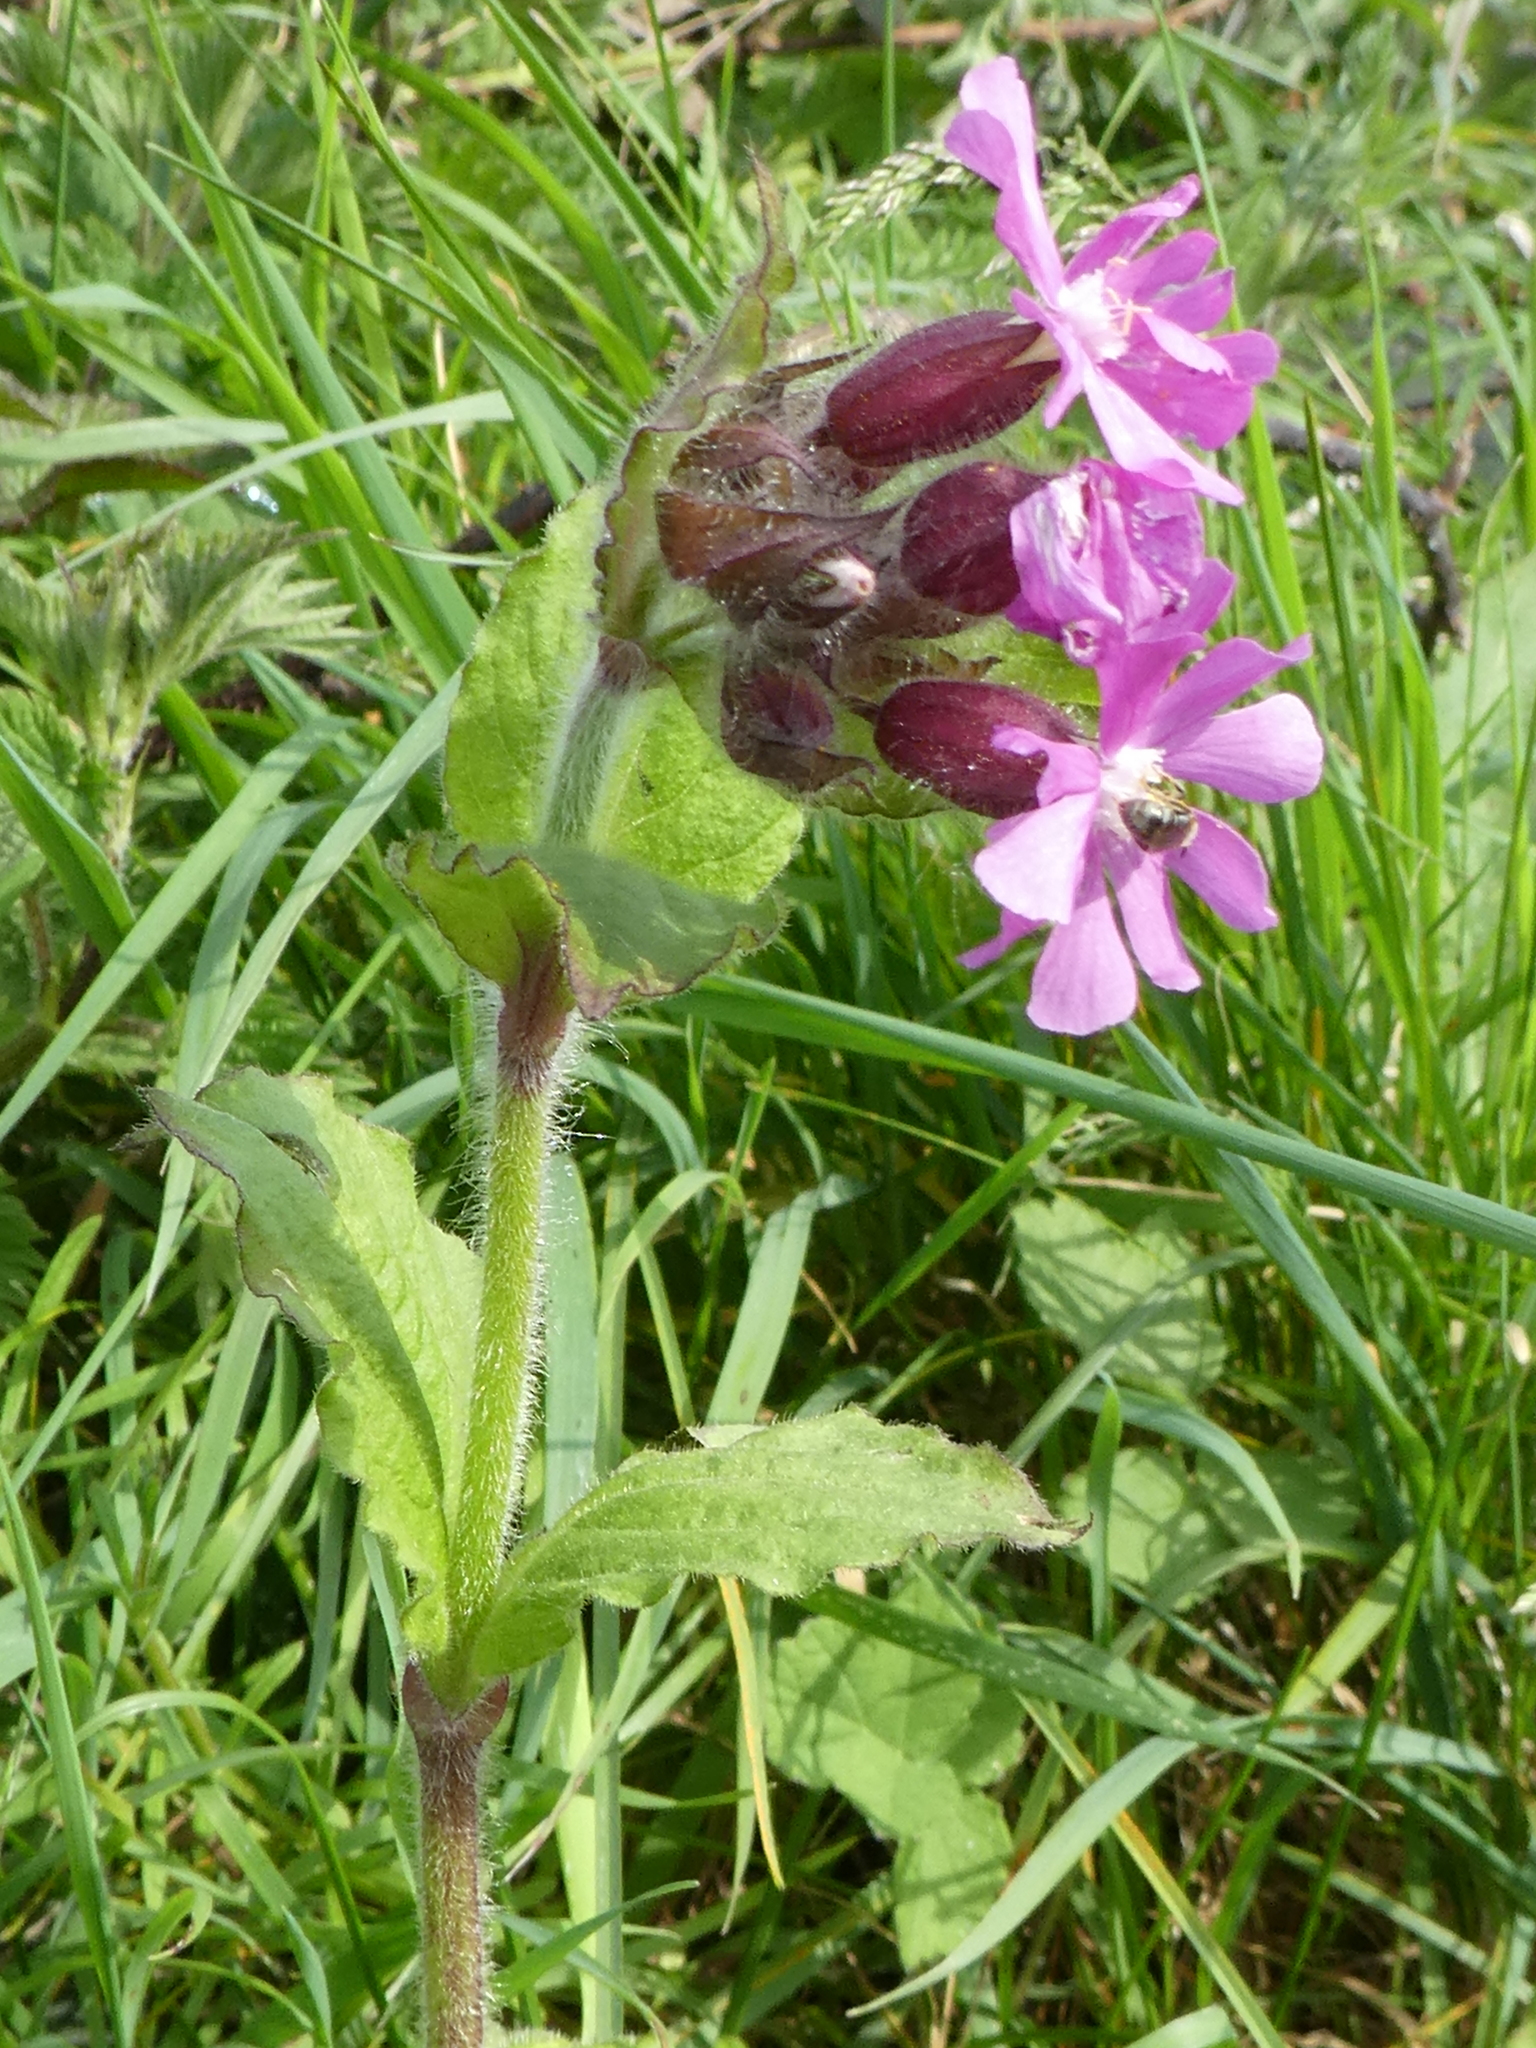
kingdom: Plantae
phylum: Tracheophyta
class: Magnoliopsida
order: Caryophyllales
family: Caryophyllaceae
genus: Silene
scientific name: Silene dioica
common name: Red campion
